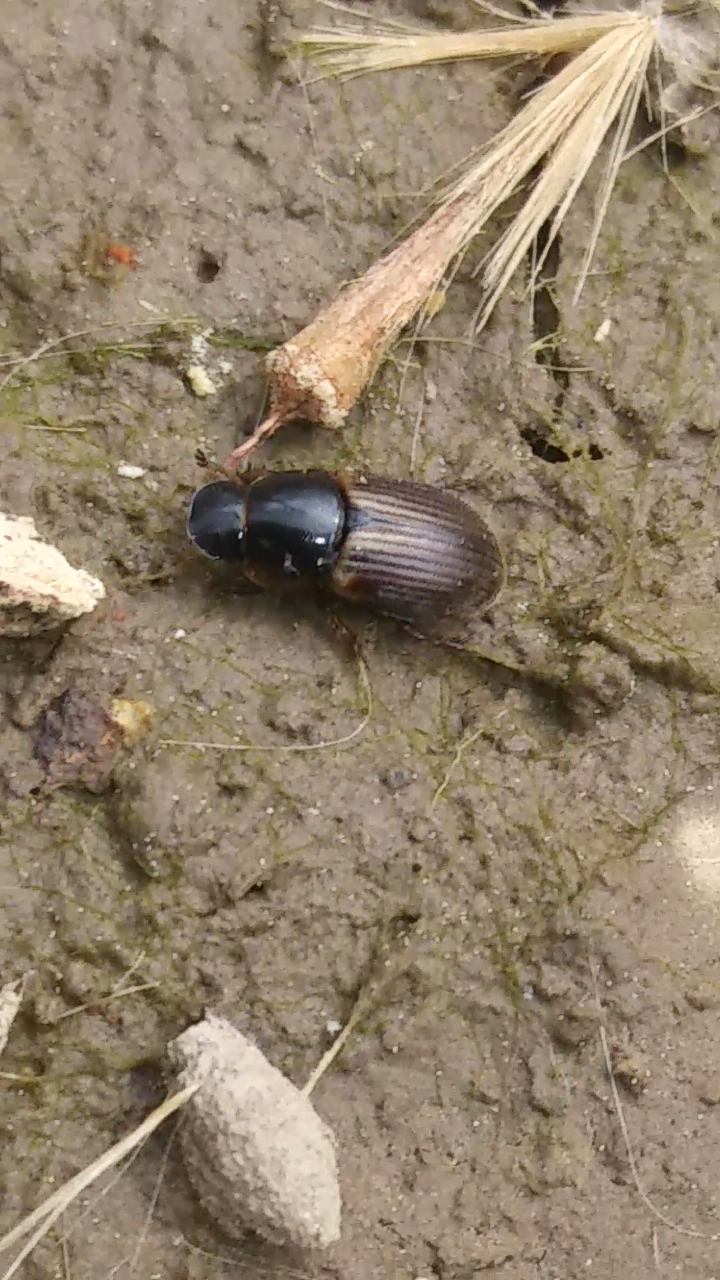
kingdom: Animalia
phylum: Arthropoda
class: Insecta
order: Coleoptera
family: Scarabaeidae
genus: Melinopterus
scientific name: Melinopterus prodromus
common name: Spring small dung beetle
